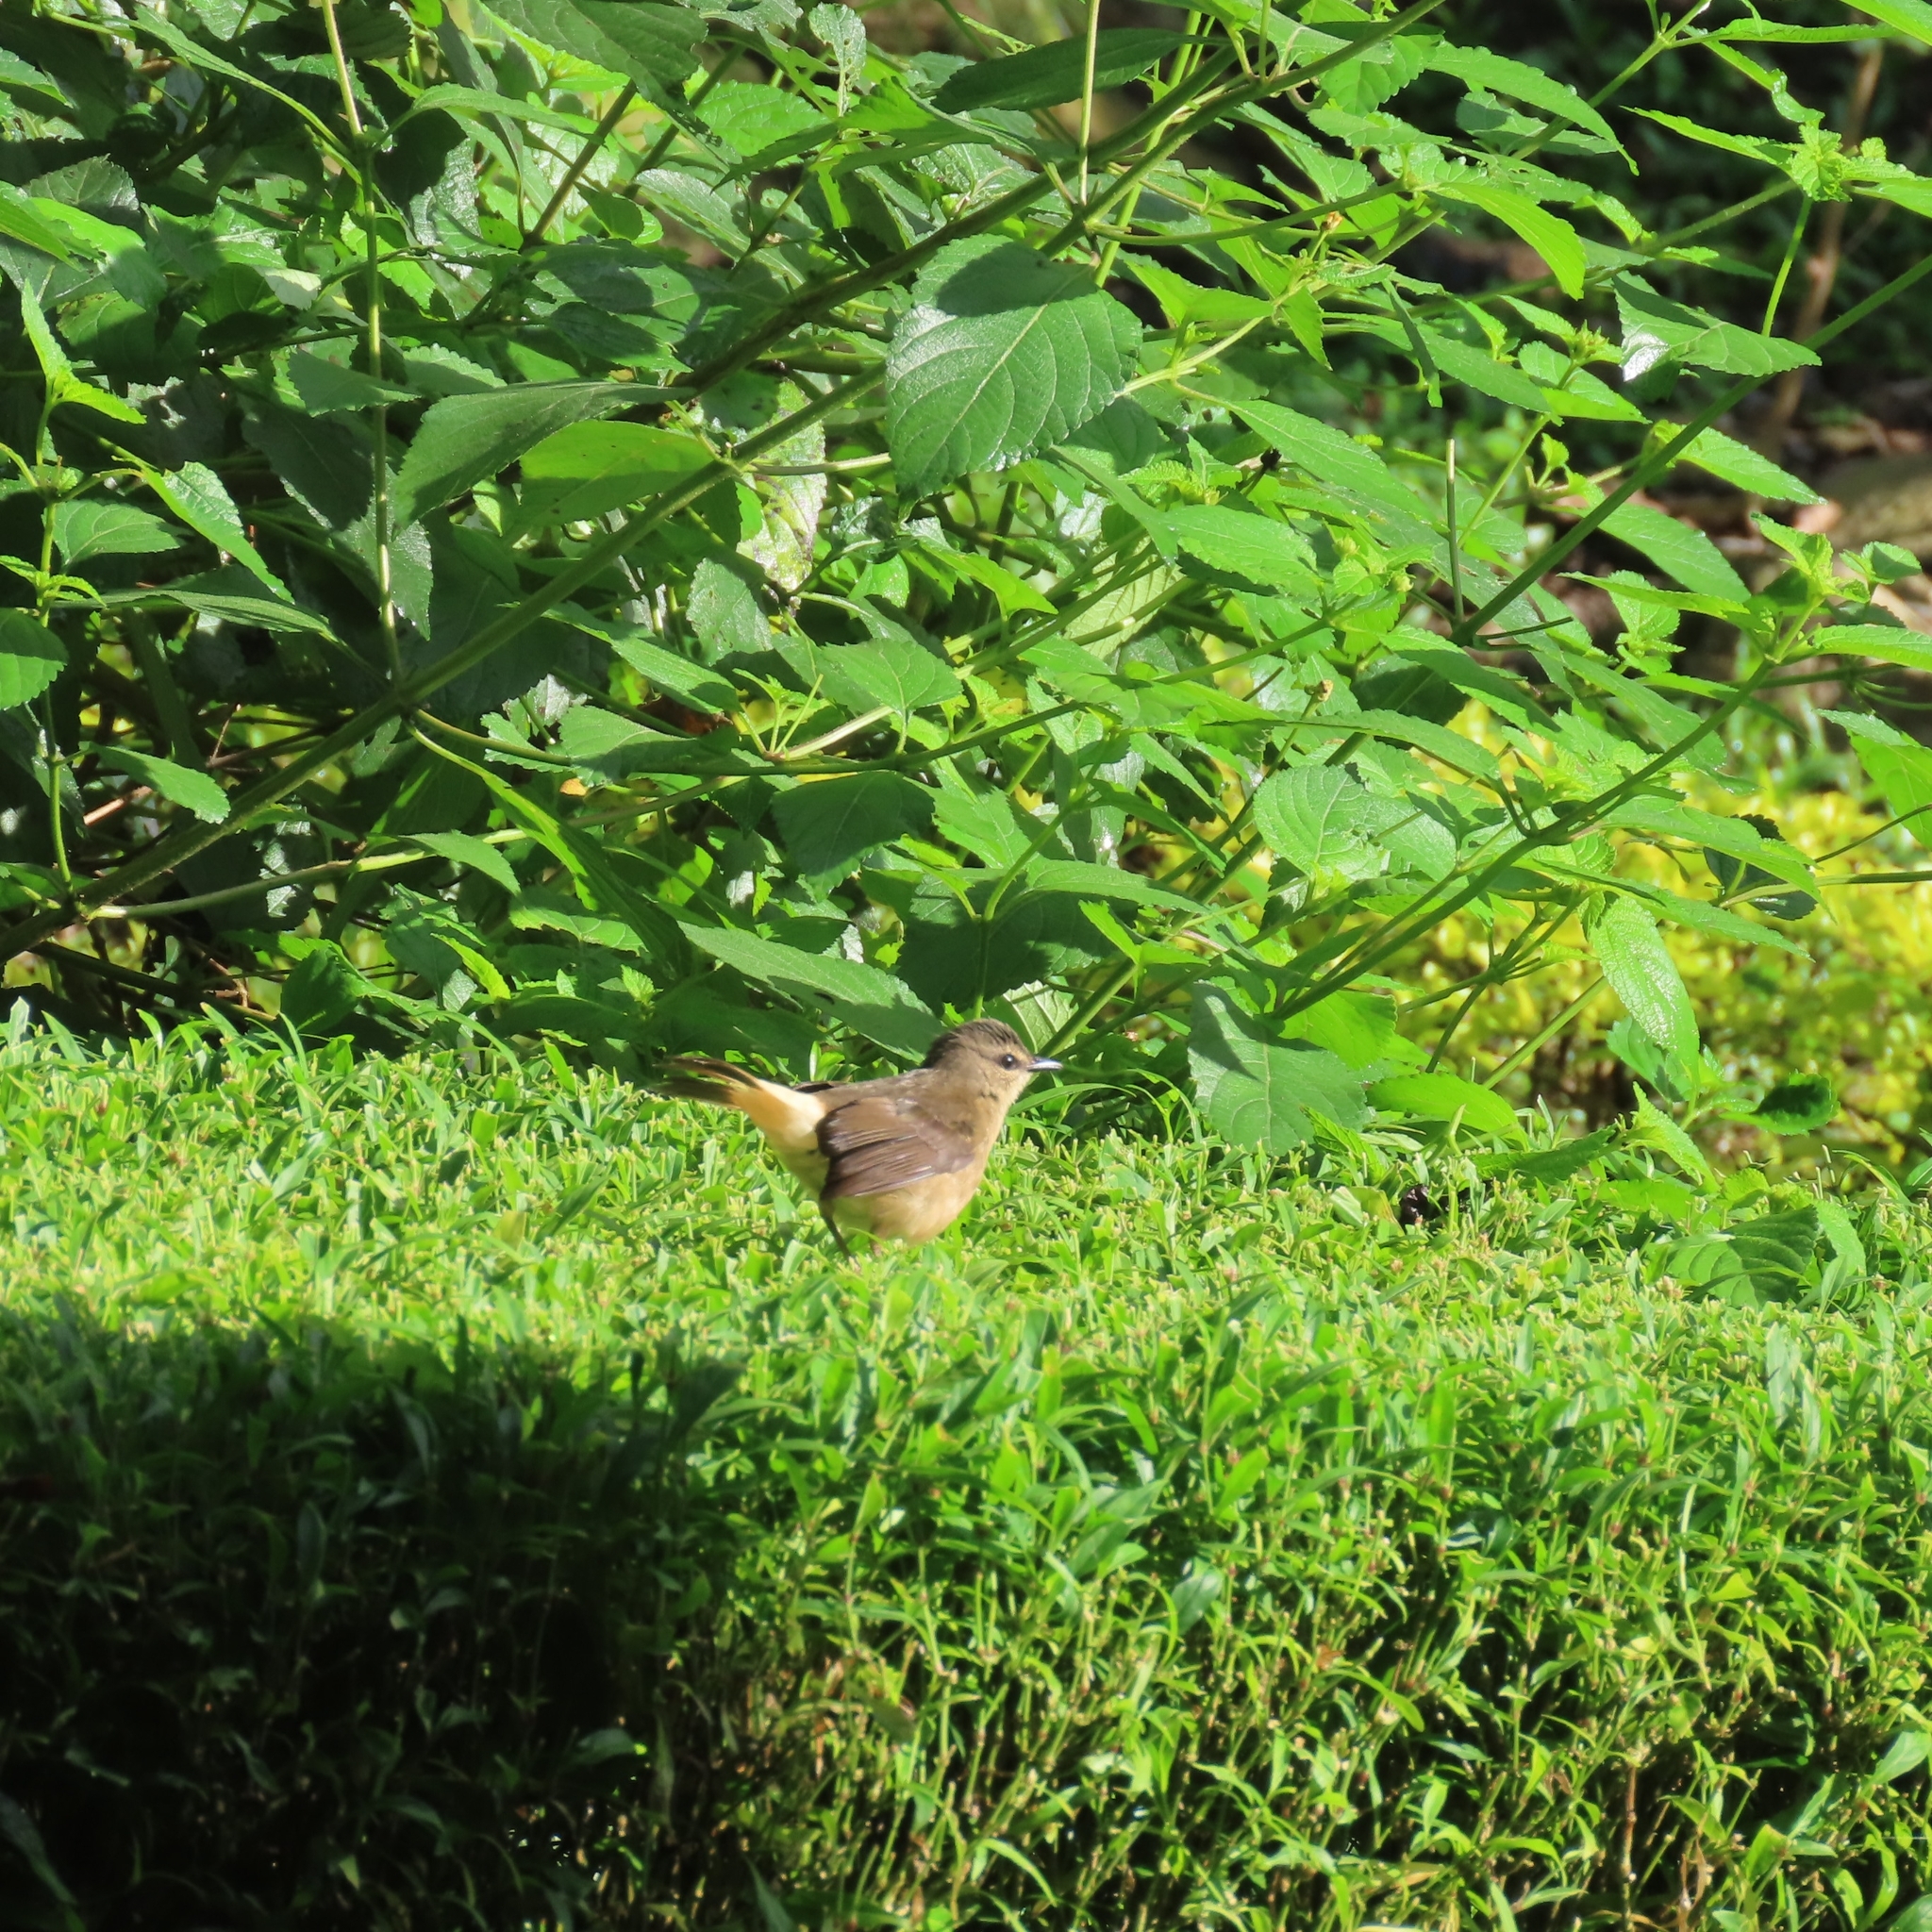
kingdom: Animalia
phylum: Chordata
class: Aves
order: Passeriformes
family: Parulidae
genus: Myiothlypis
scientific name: Myiothlypis fulvicauda
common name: Buff-rumped warbler
